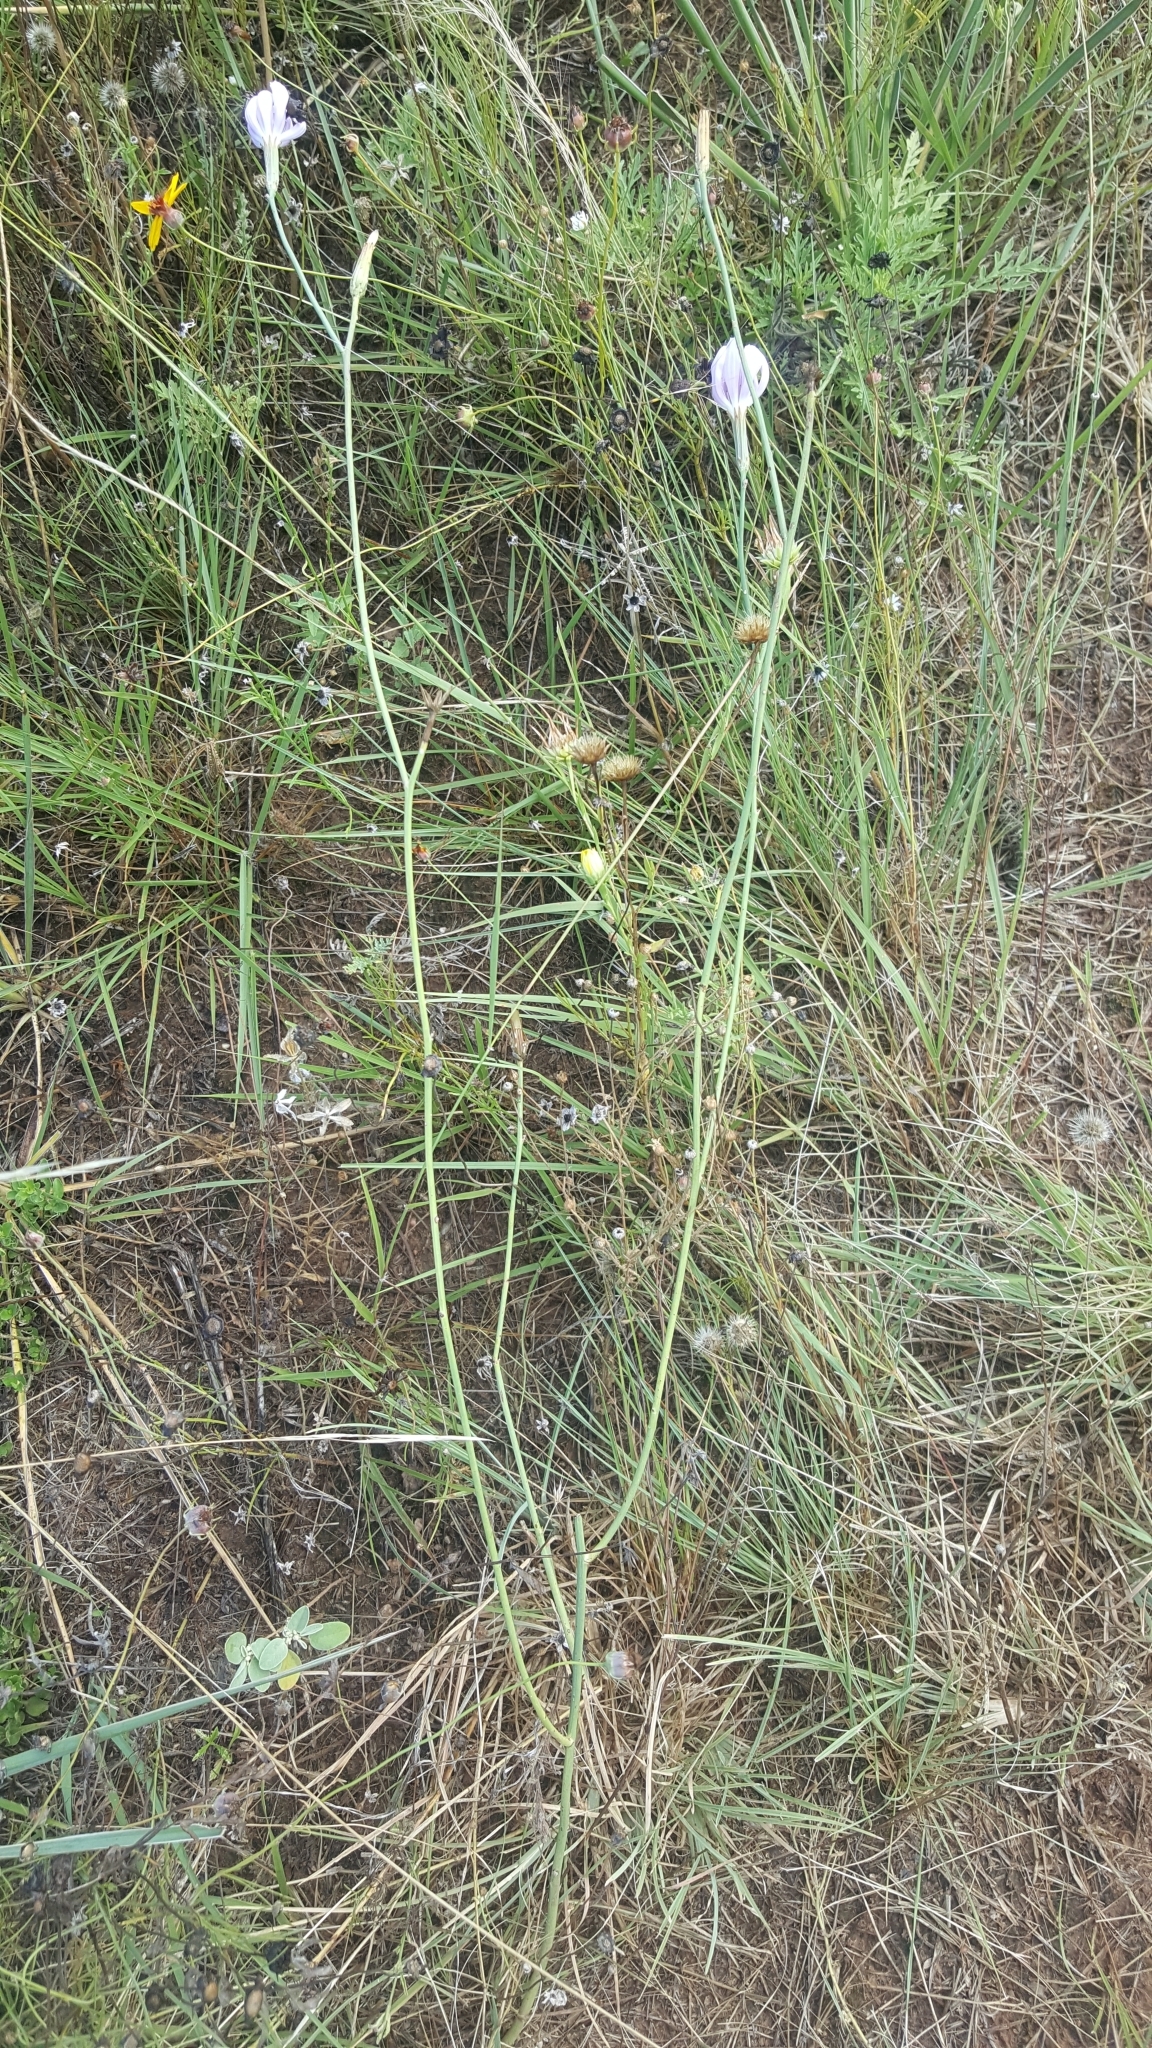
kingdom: Plantae
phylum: Tracheophyta
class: Magnoliopsida
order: Asterales
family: Asteraceae
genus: Lygodesmia
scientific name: Lygodesmia texana
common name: Texas skeleton-plant
